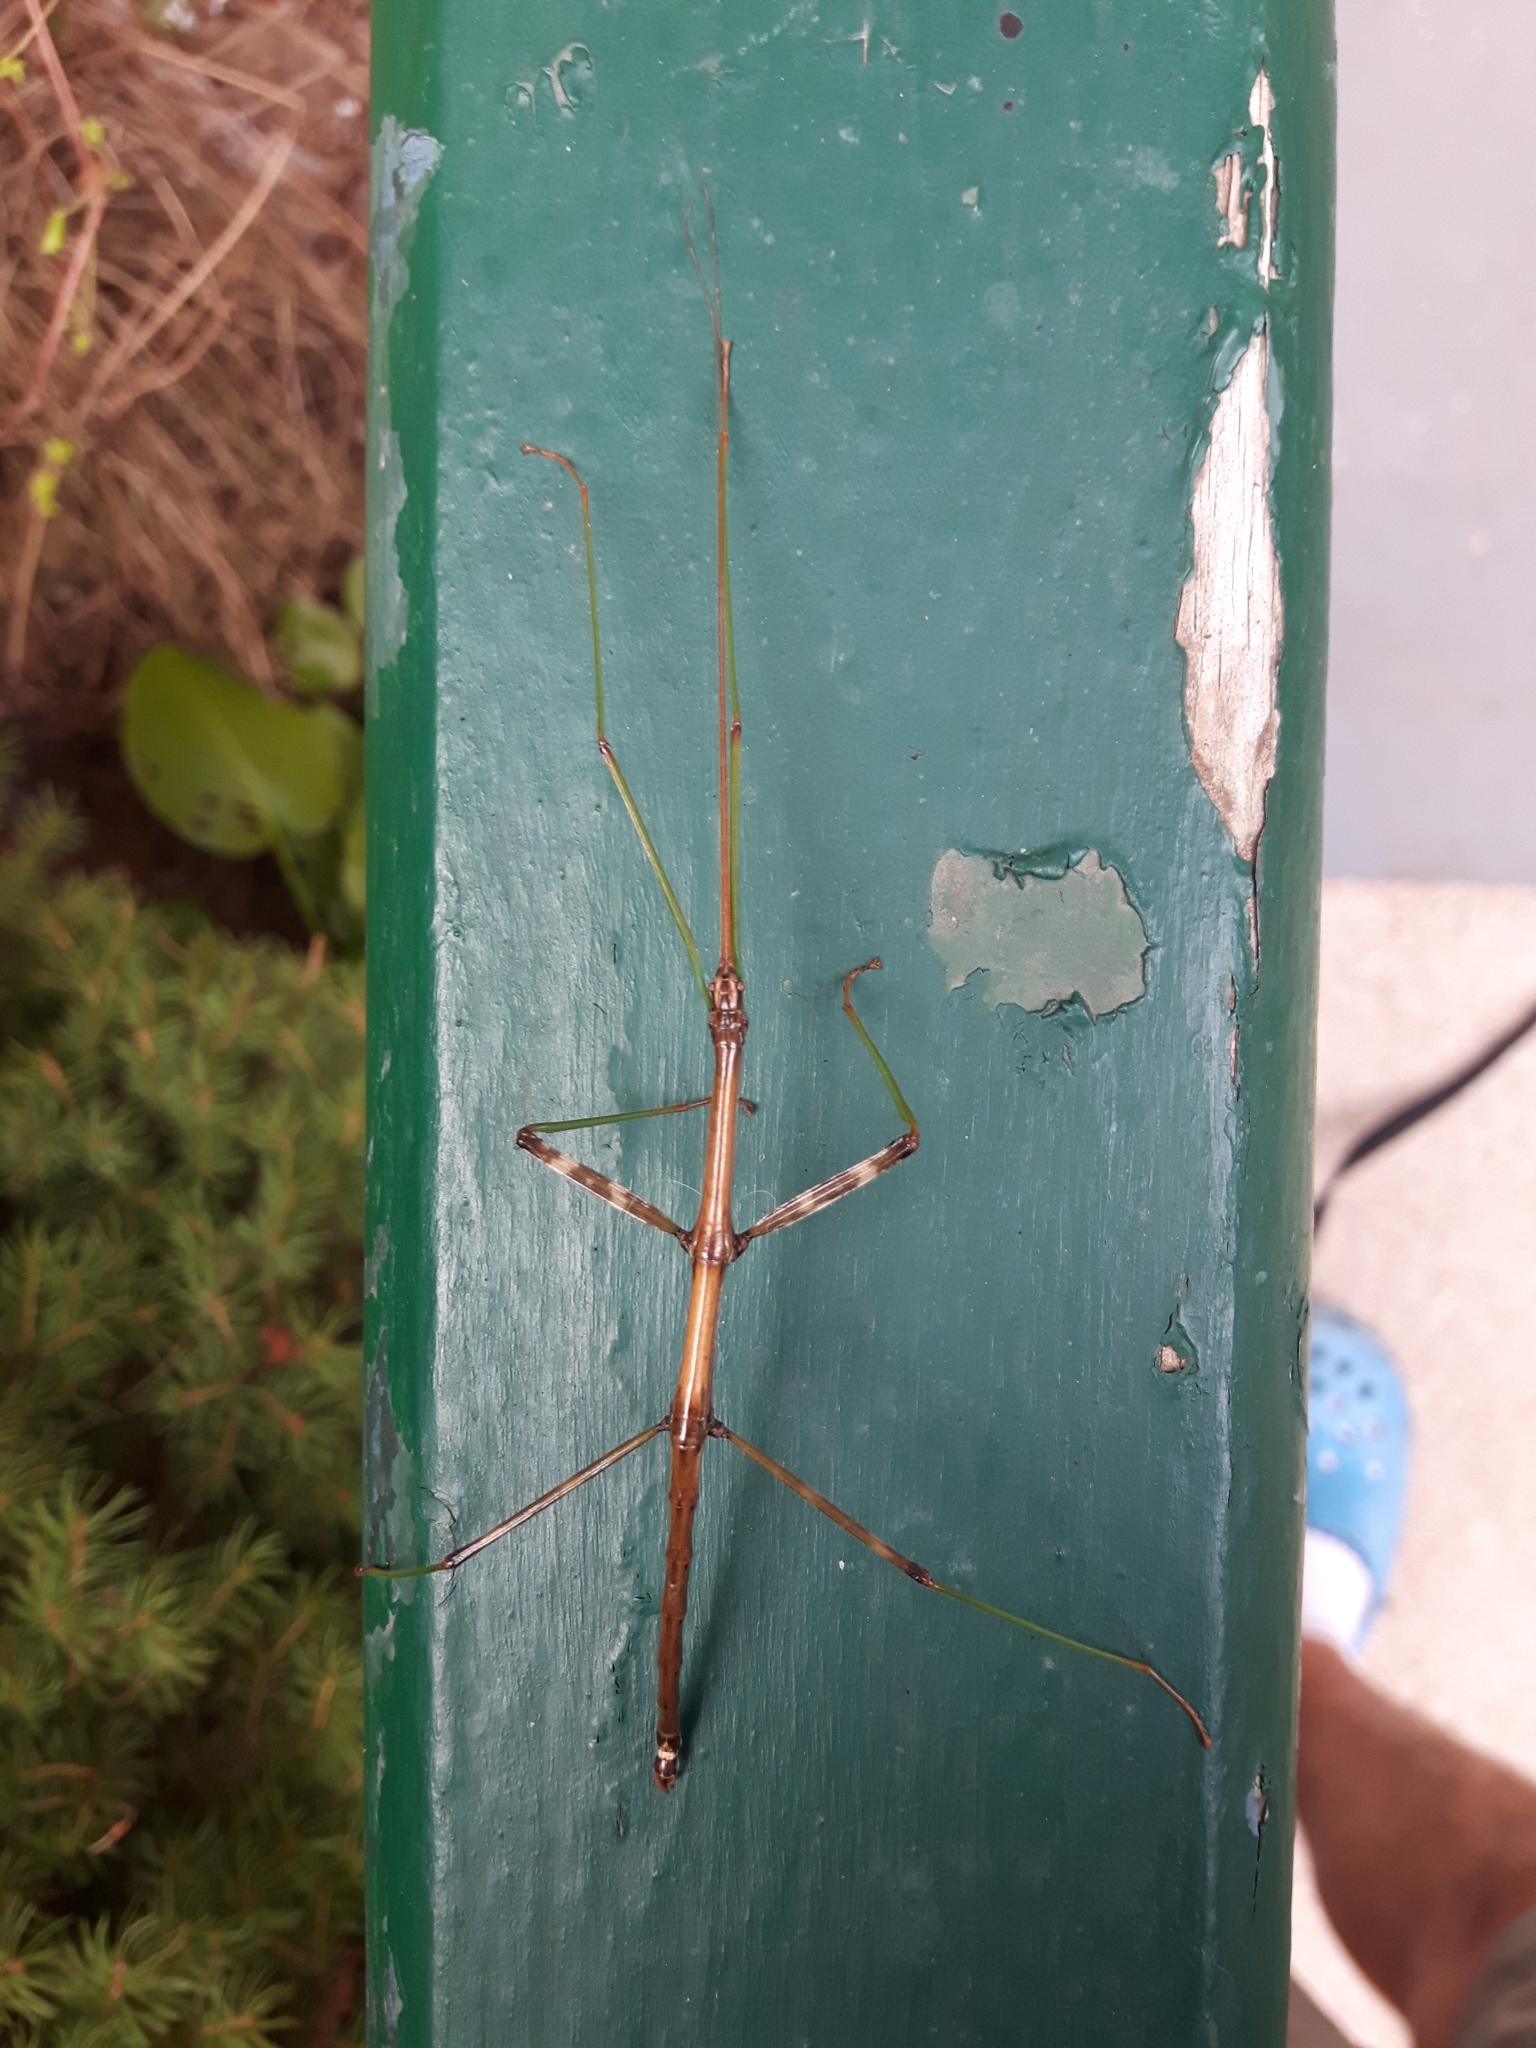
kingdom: Animalia
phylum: Arthropoda
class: Insecta
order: Phasmida
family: Diapheromeridae
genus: Diapheromera
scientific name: Diapheromera femorata
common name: Common american walkingstick
